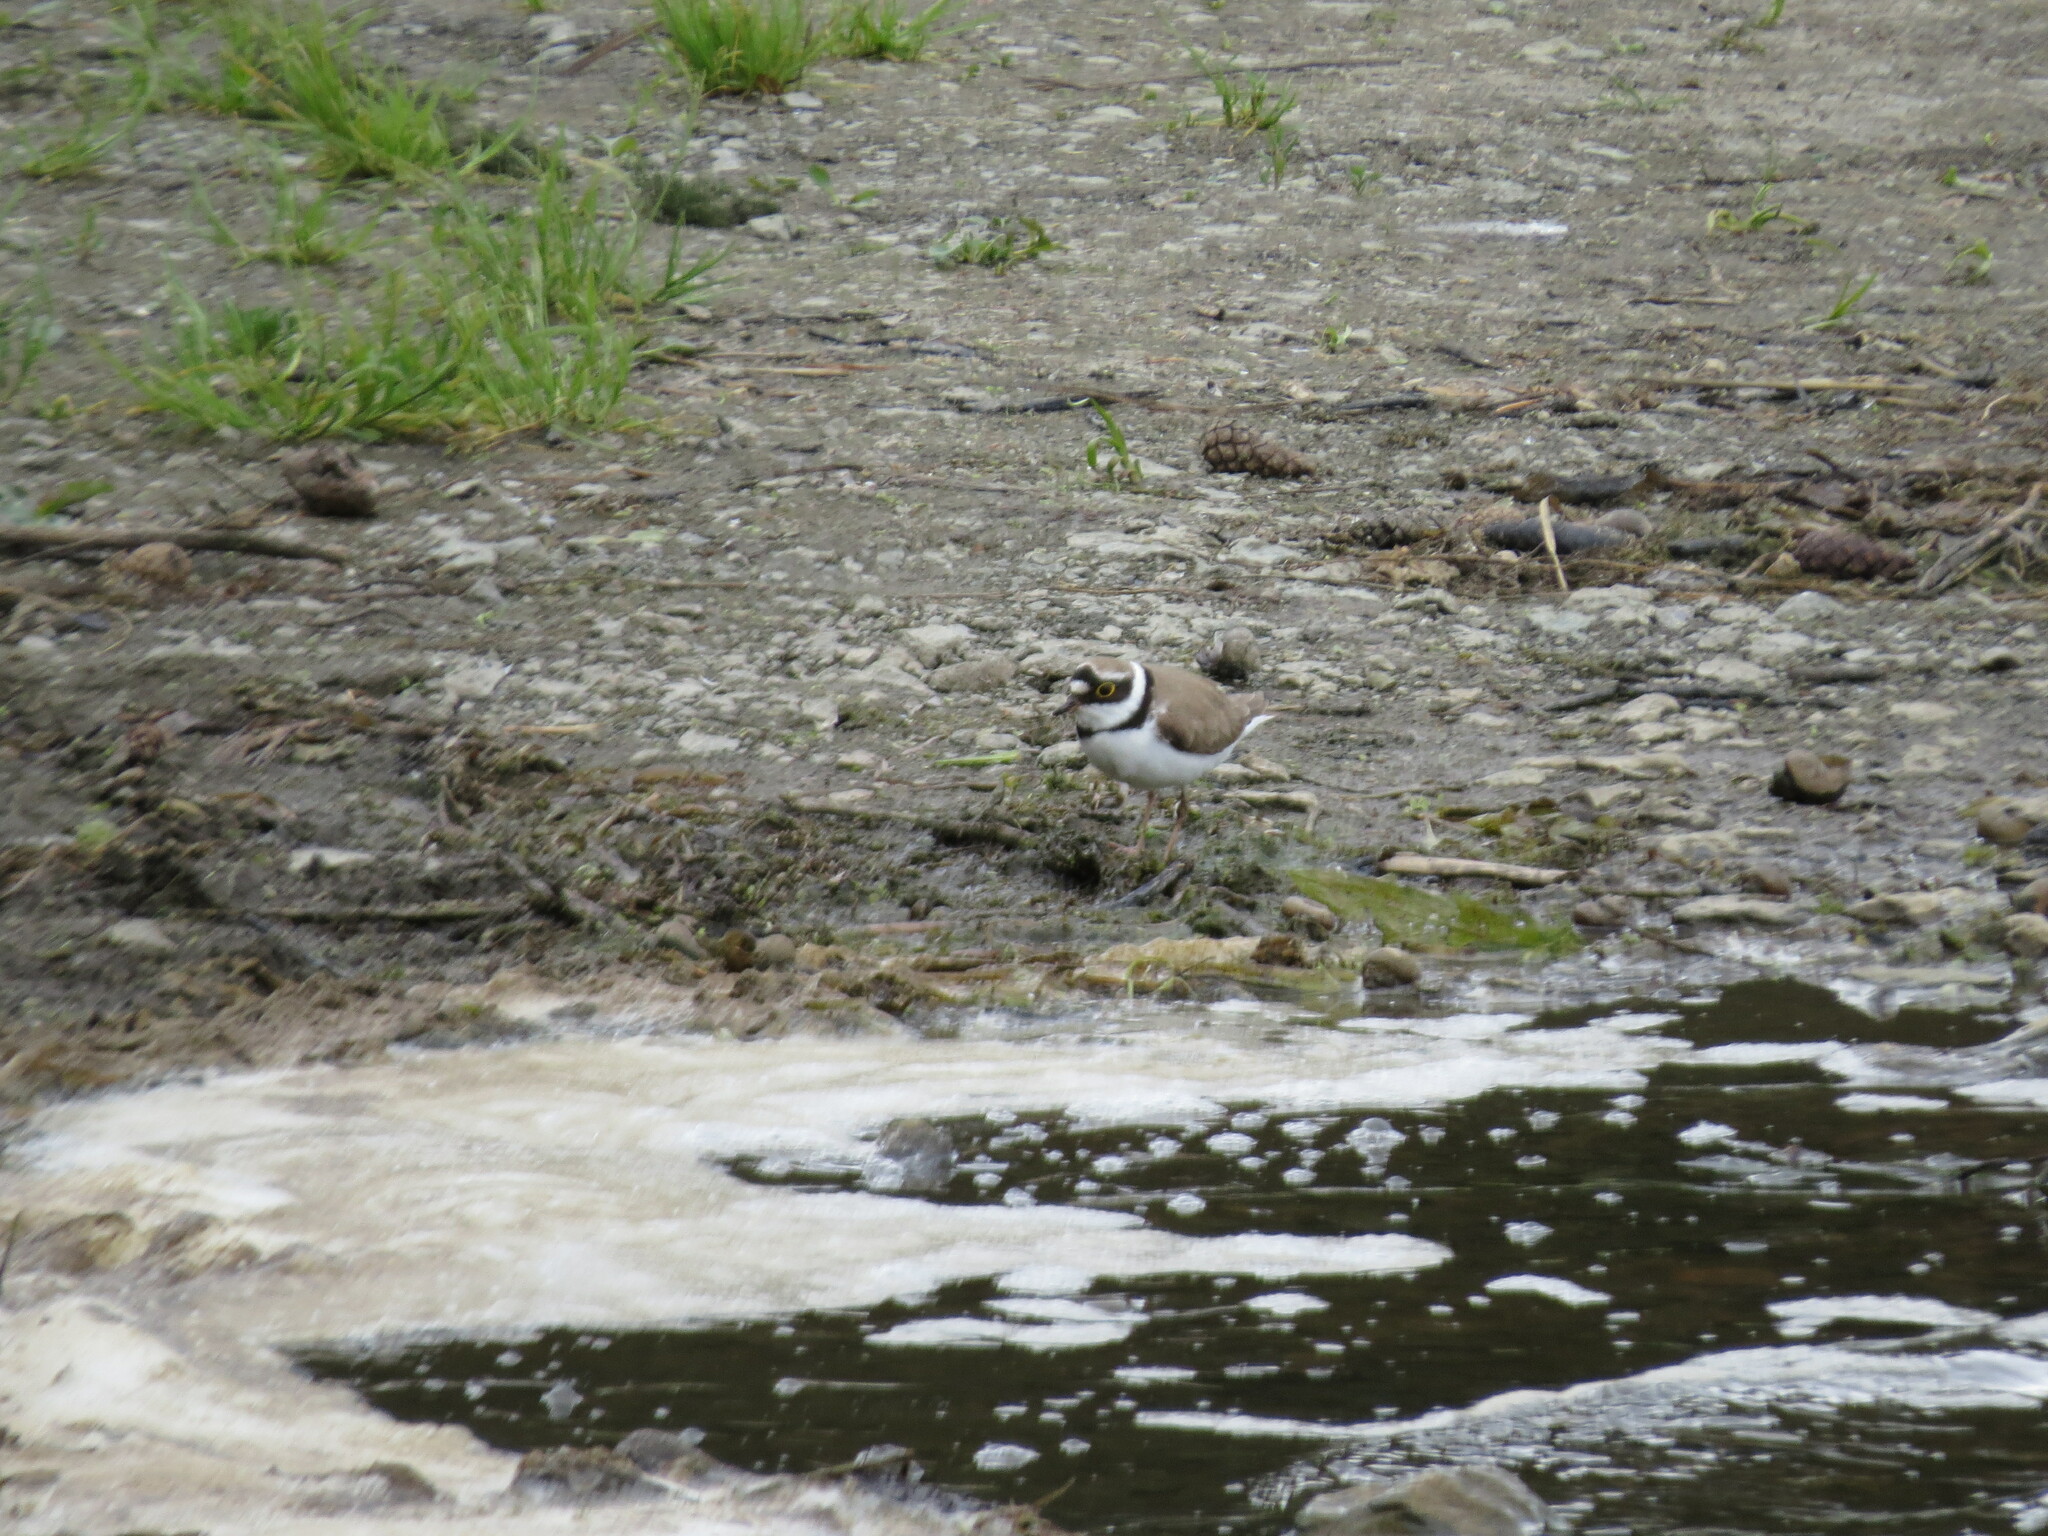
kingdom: Animalia
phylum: Chordata
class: Aves
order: Charadriiformes
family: Charadriidae
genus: Charadrius
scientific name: Charadrius dubius
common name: Little ringed plover
